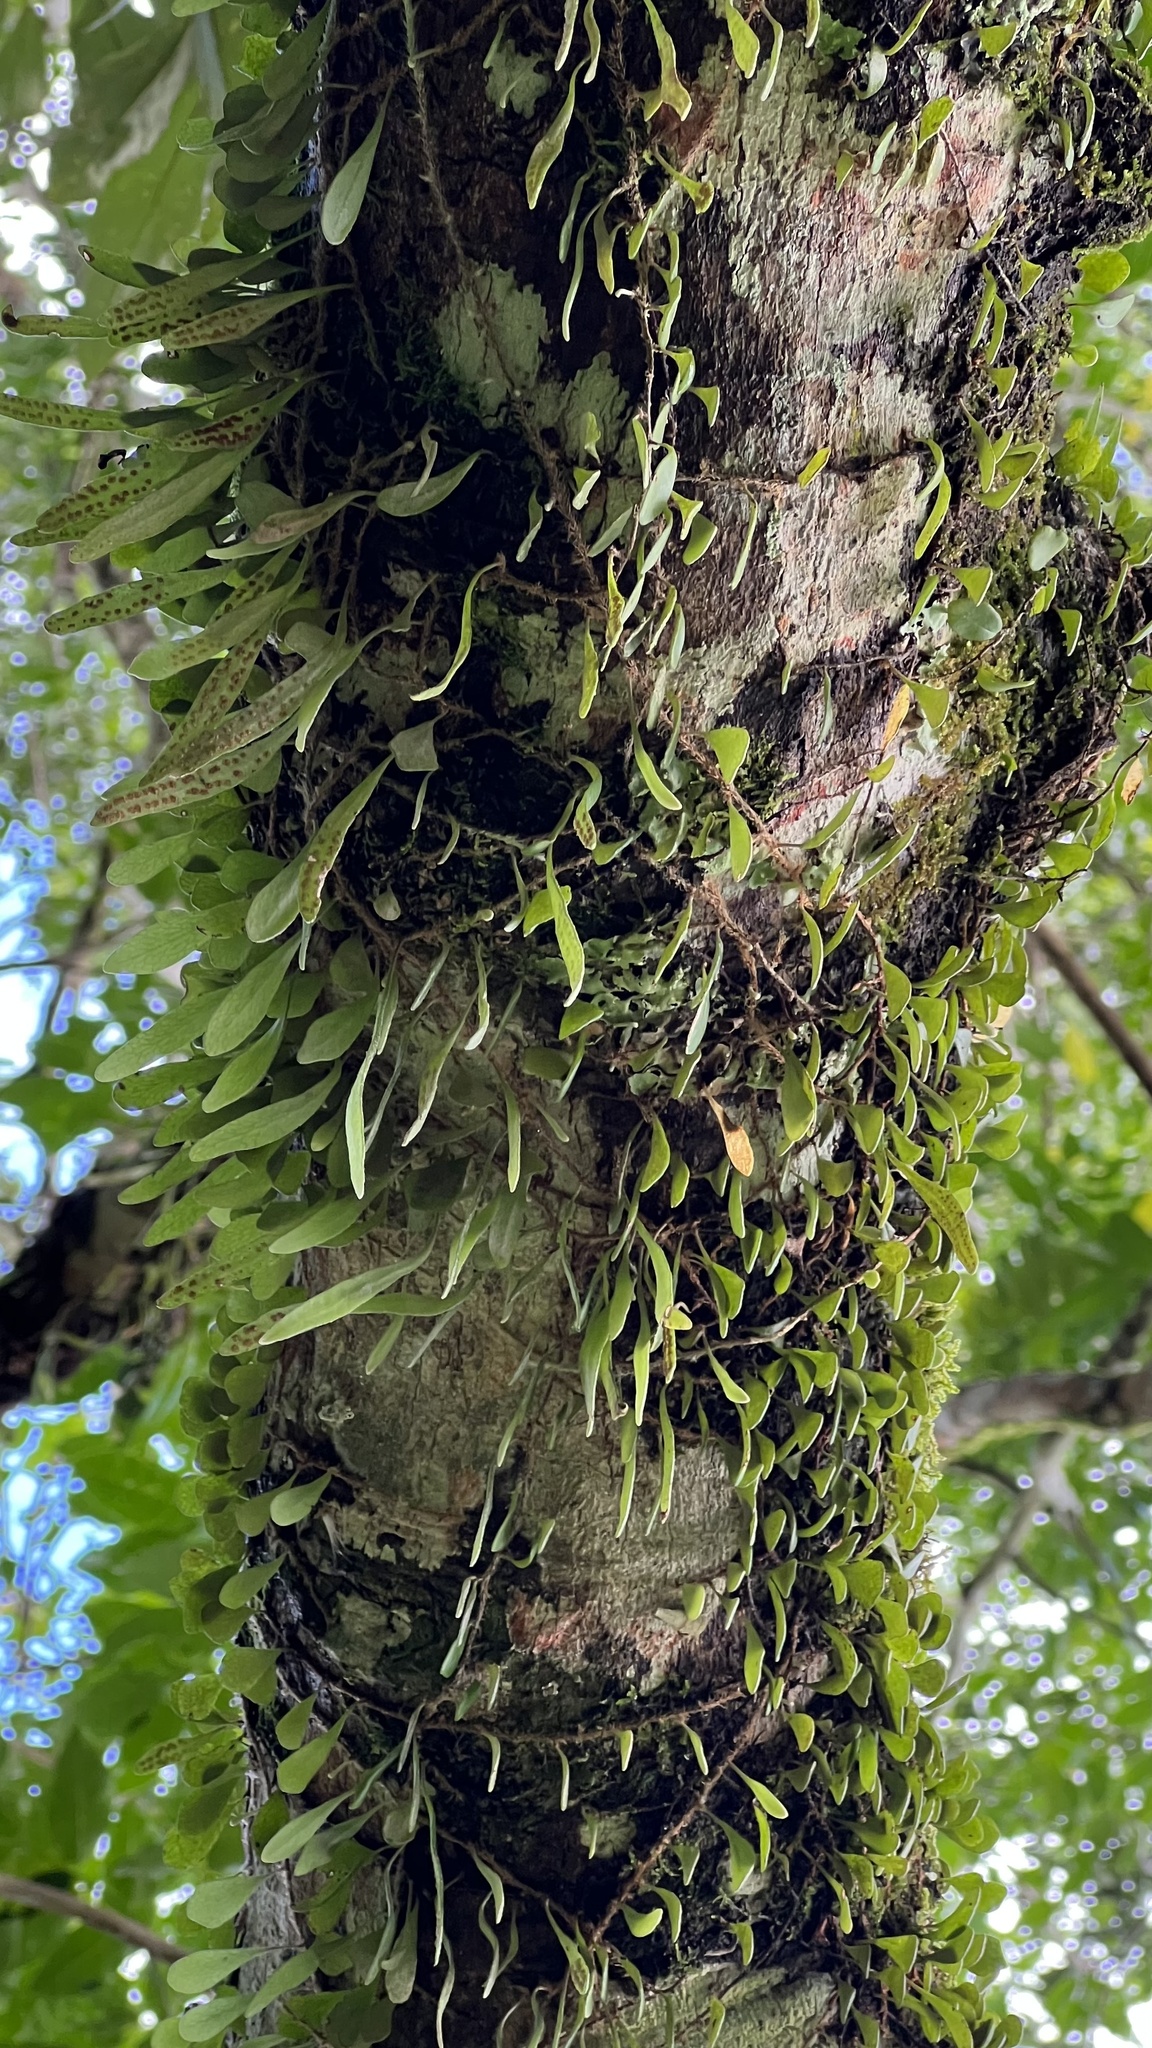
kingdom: Plantae
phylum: Tracheophyta
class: Polypodiopsida
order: Polypodiales
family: Polypodiaceae
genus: Pyrrosia
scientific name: Pyrrosia rupestris
